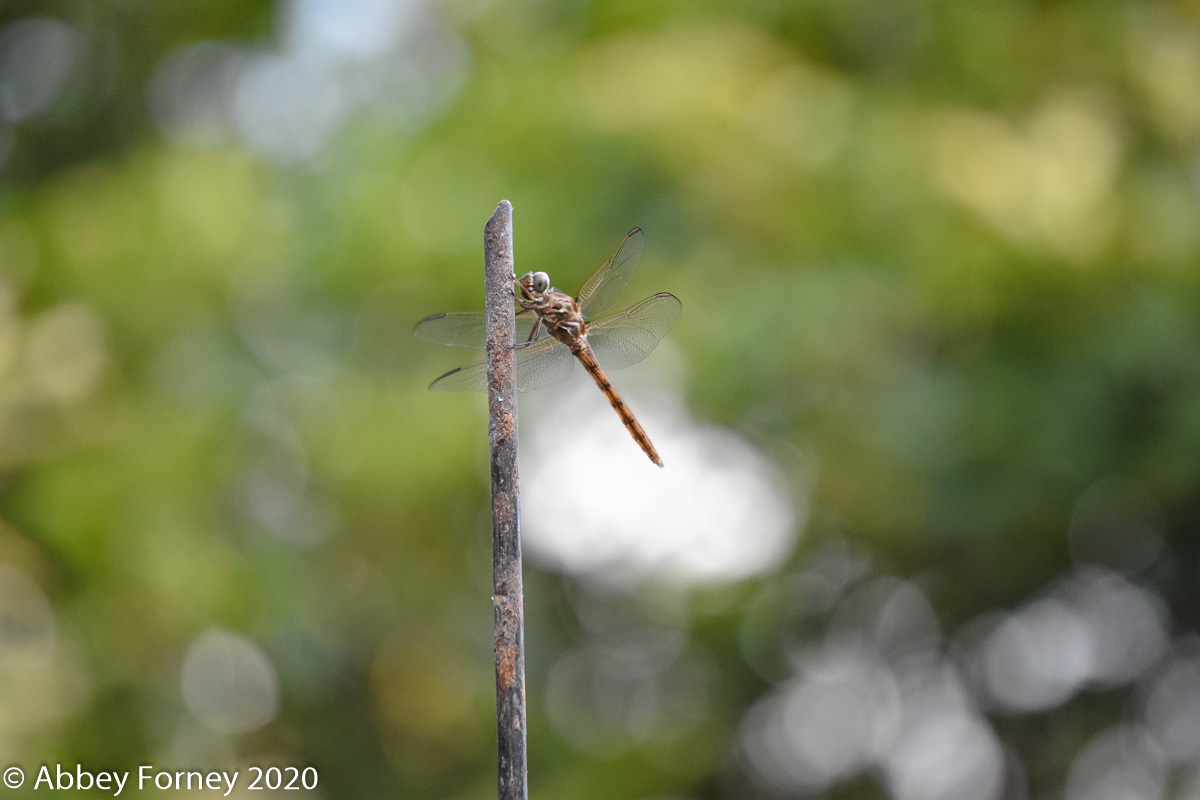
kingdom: Animalia
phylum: Arthropoda
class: Insecta
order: Odonata
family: Libellulidae
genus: Orthemis
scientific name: Orthemis ferruginea
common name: Roseate skimmer
